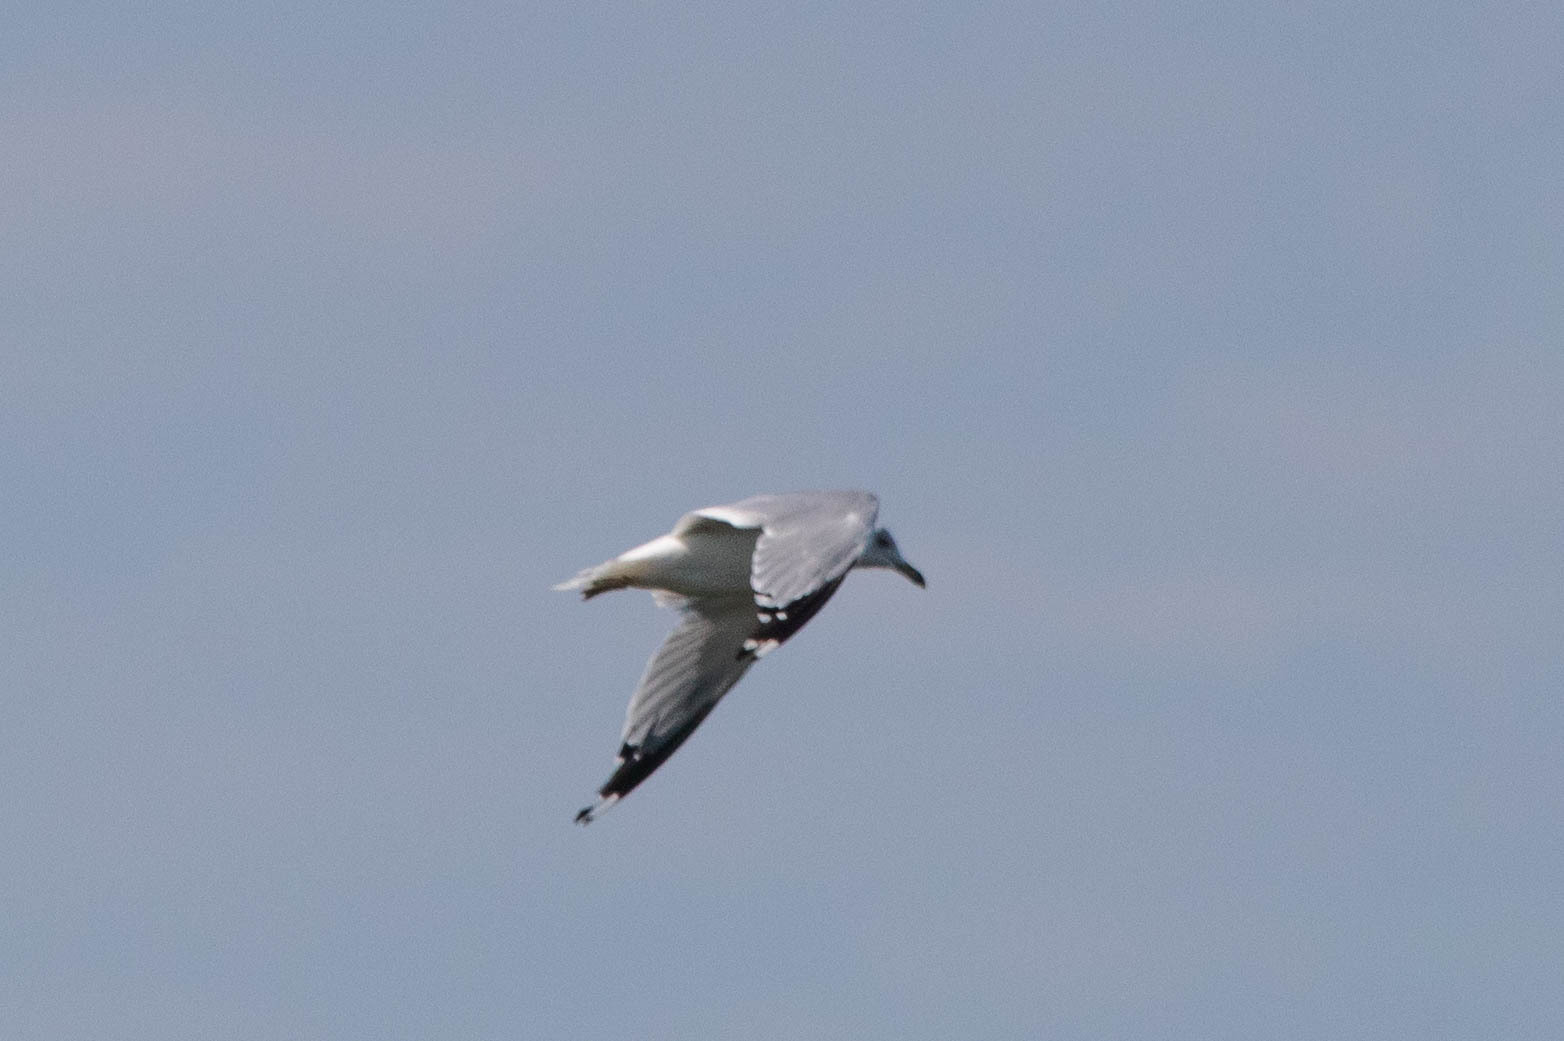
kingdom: Animalia
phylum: Chordata
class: Aves
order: Charadriiformes
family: Laridae
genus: Larus
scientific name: Larus delawarensis
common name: Ring-billed gull
